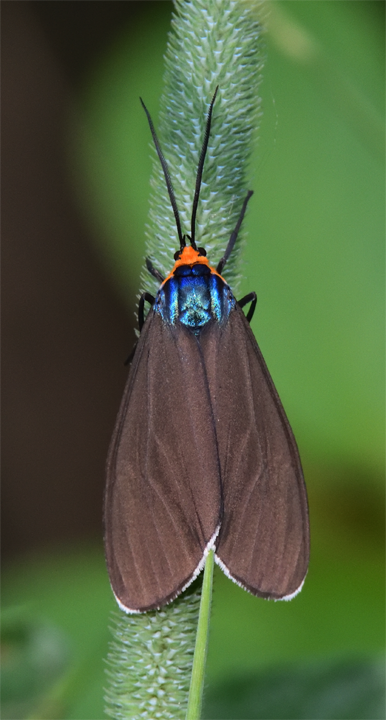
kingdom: Animalia
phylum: Arthropoda
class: Insecta
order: Lepidoptera
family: Erebidae
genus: Ctenucha
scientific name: Ctenucha virginica
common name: Virginia ctenucha moth
